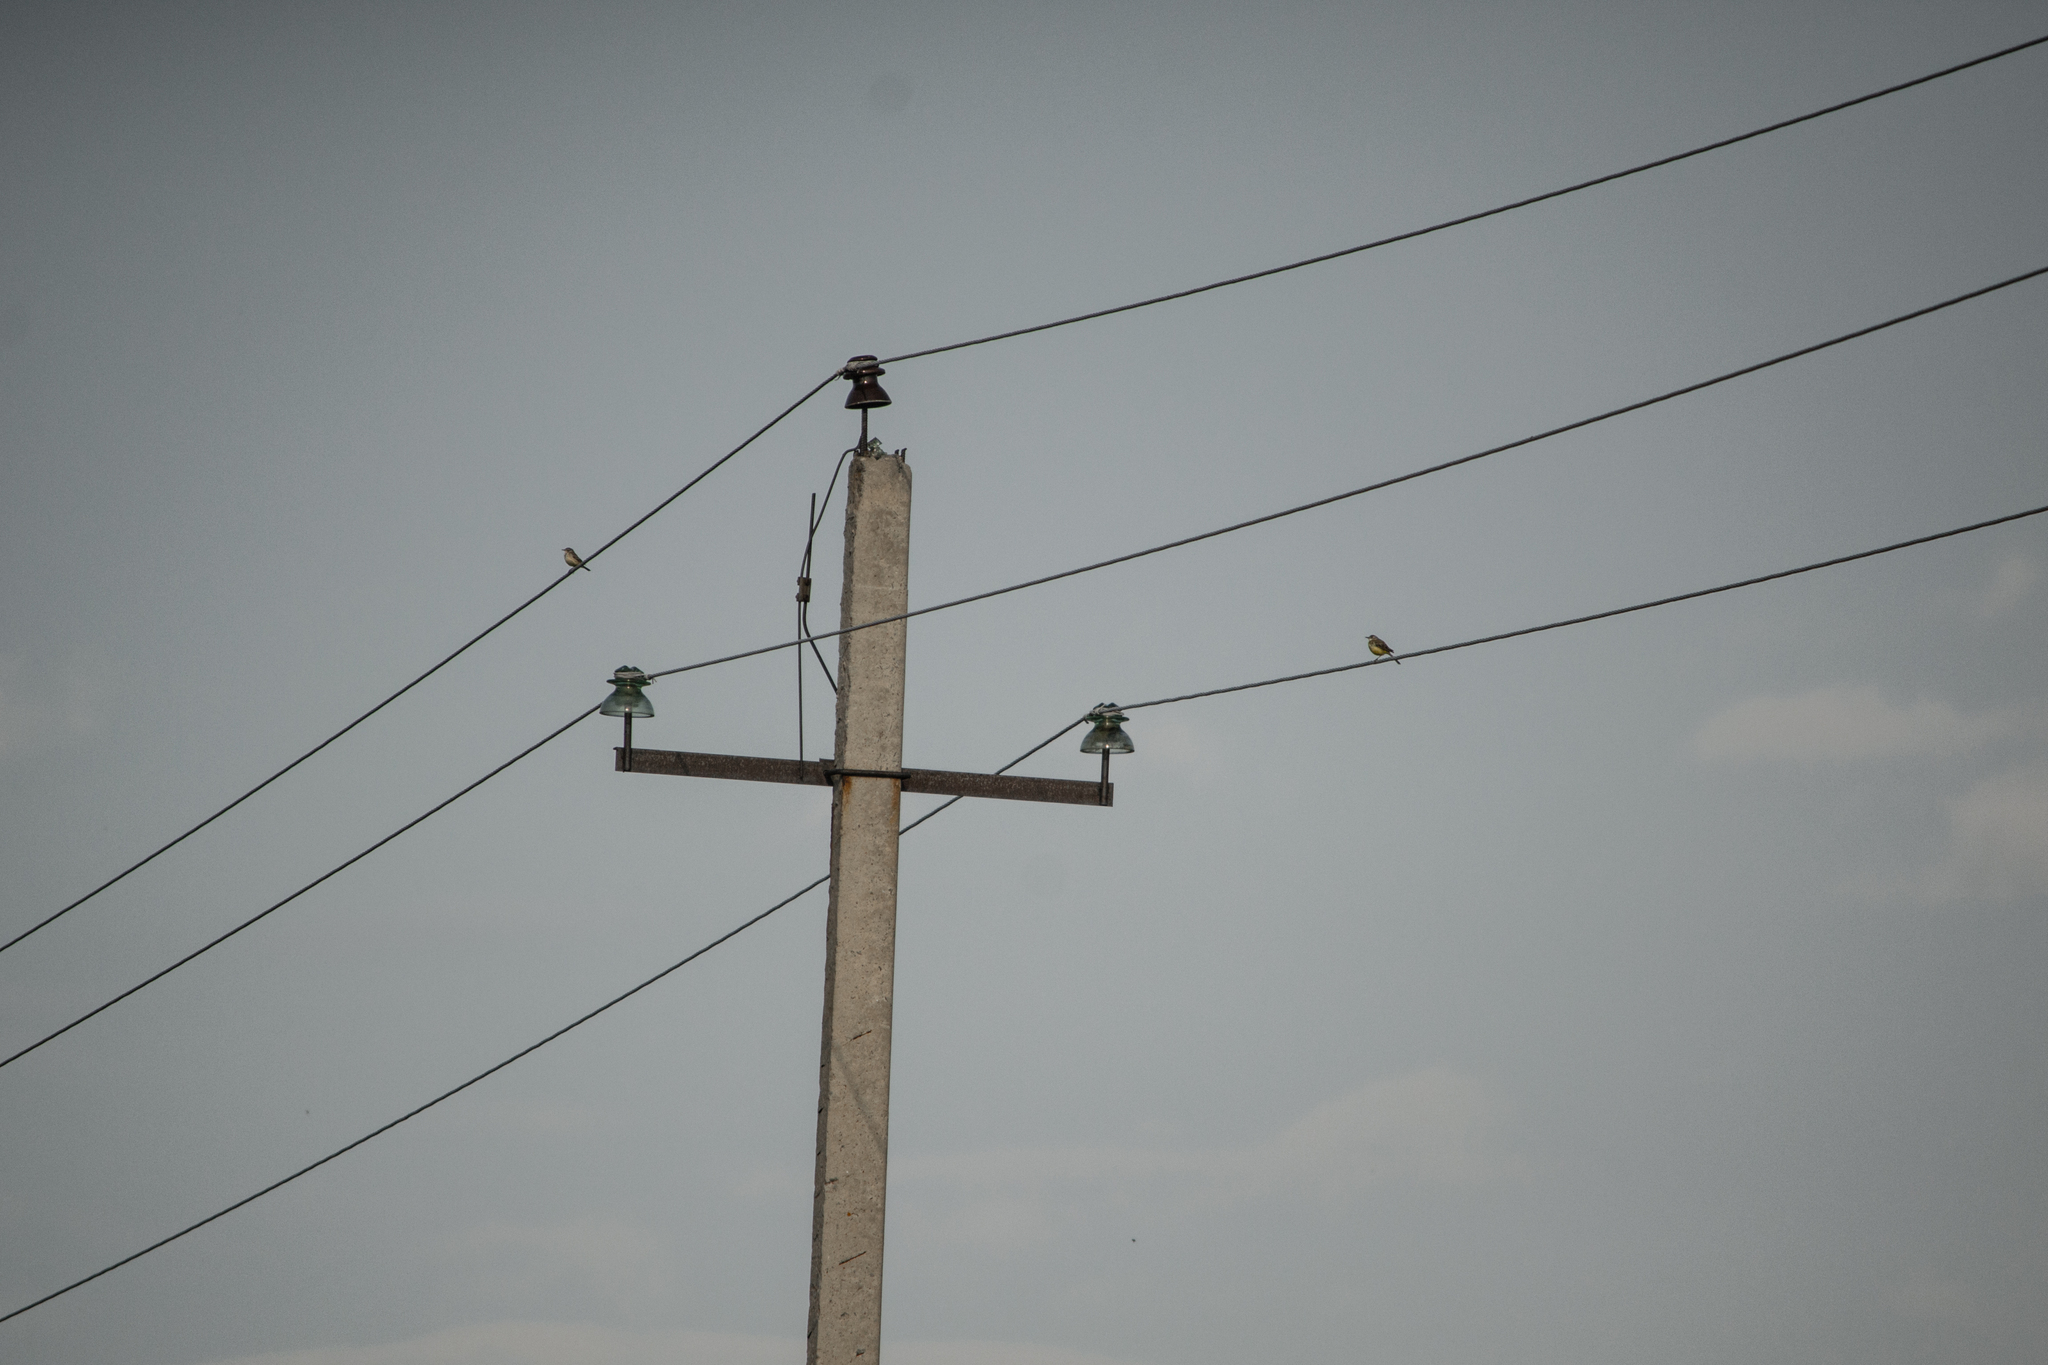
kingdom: Animalia
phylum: Chordata
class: Aves
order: Passeriformes
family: Motacillidae
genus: Motacilla
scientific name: Motacilla flava
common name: Western yellow wagtail
